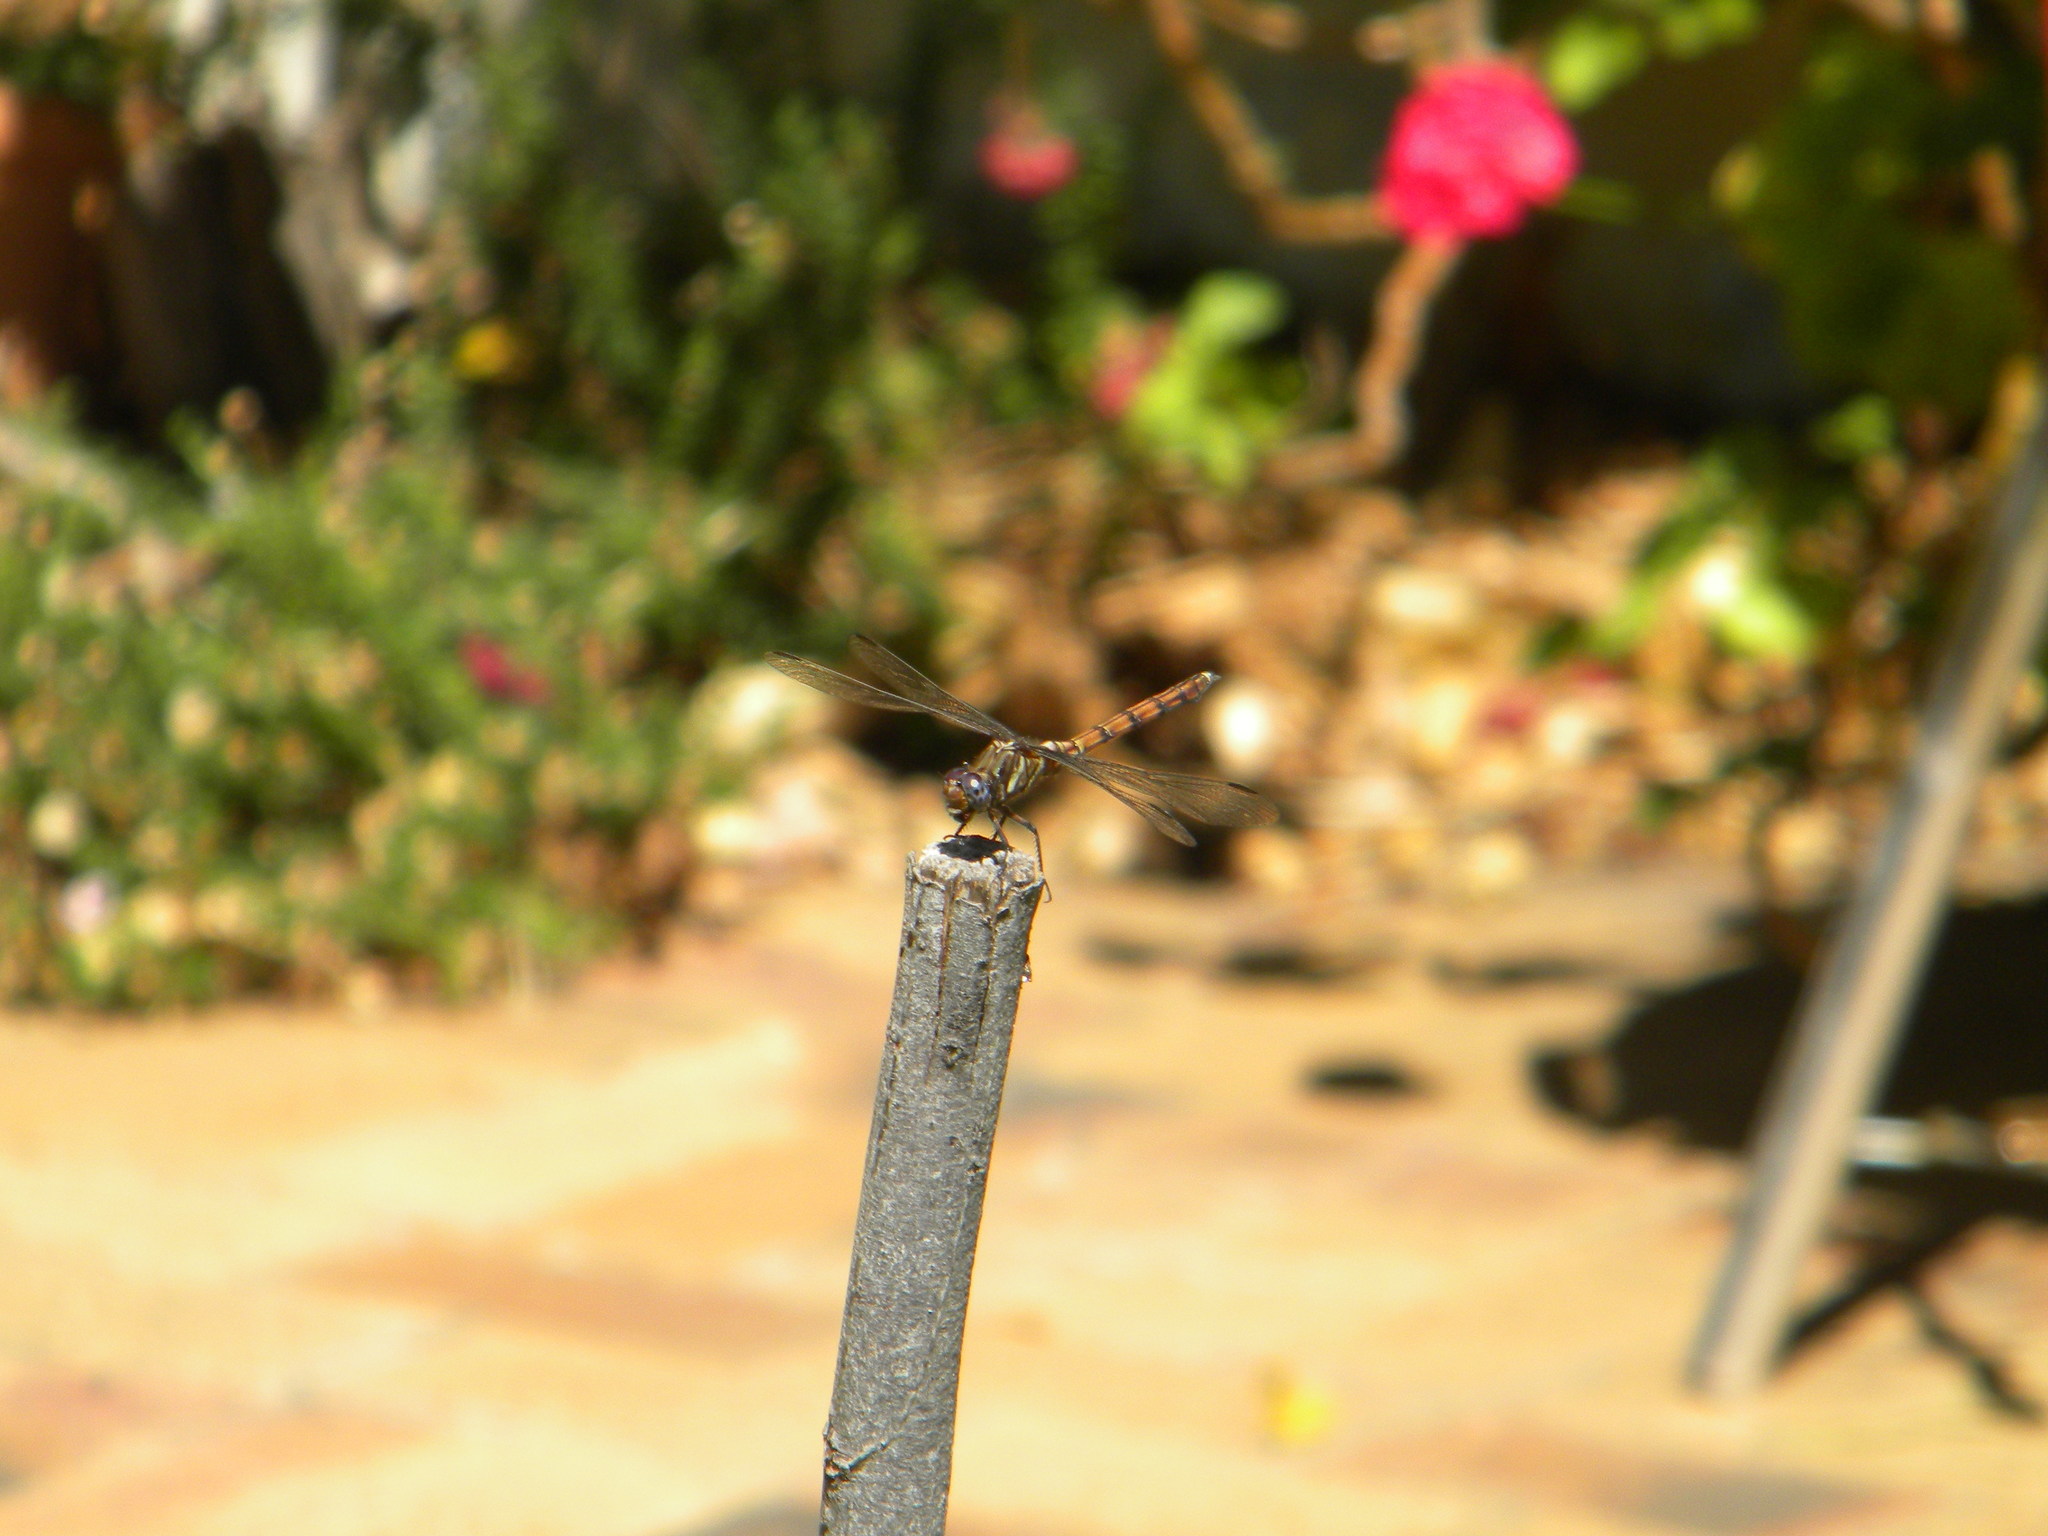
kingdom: Animalia
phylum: Arthropoda
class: Insecta
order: Odonata
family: Libellulidae
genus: Orthetrum
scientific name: Orthetrum julia
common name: Julia skimmer
